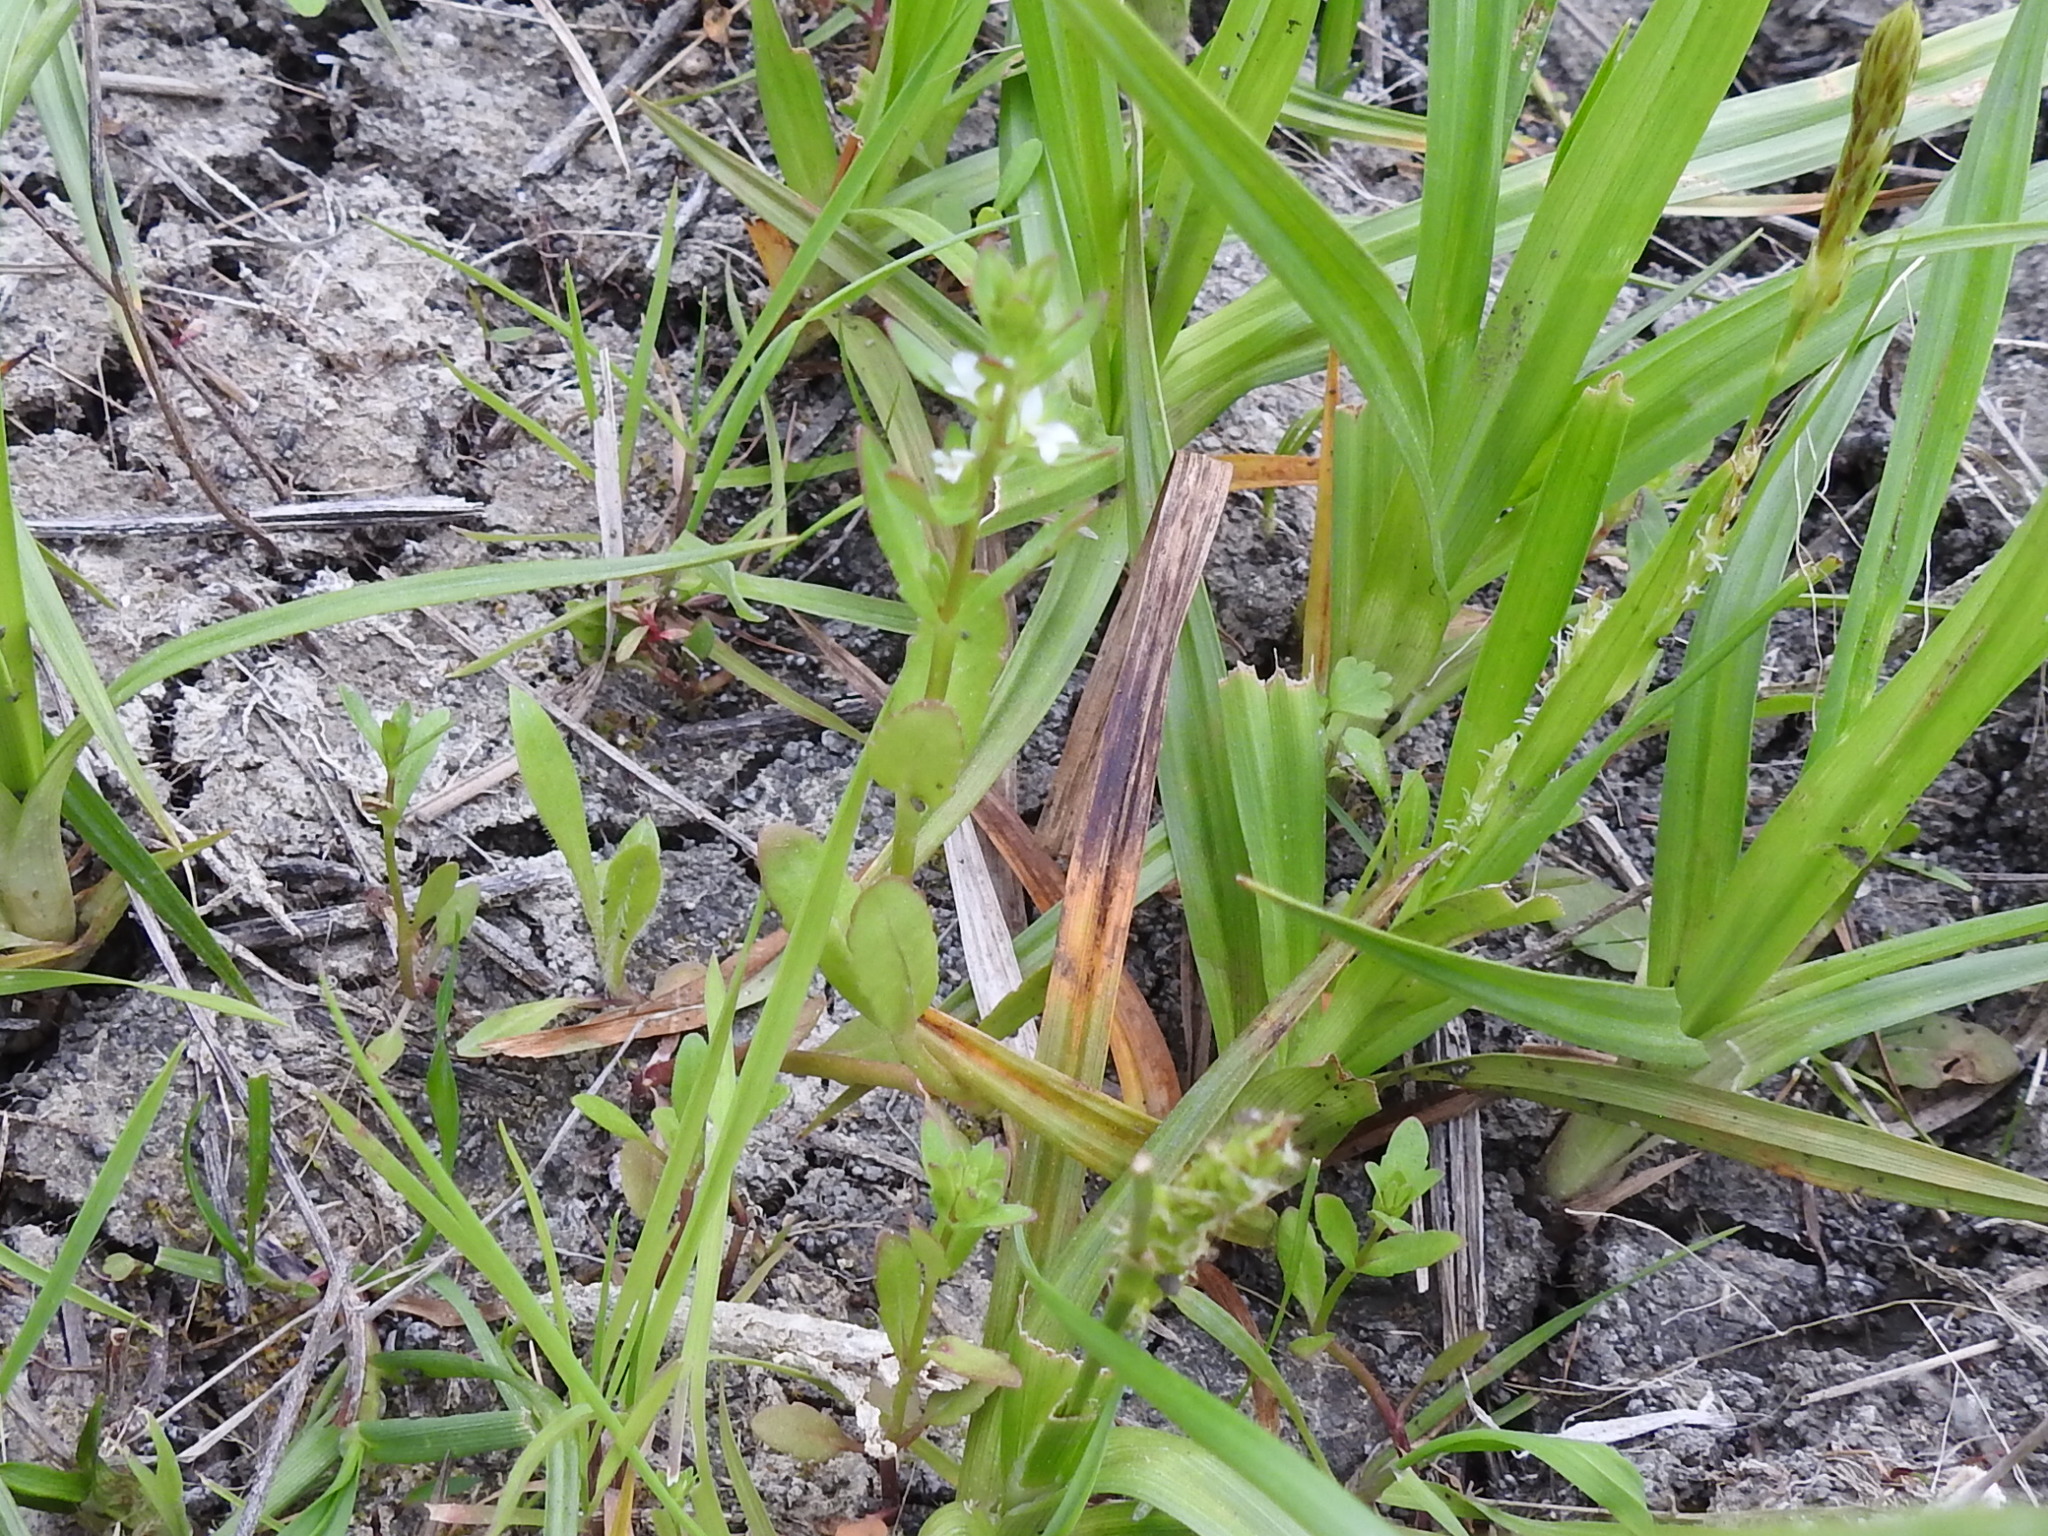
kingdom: Plantae
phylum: Tracheophyta
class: Magnoliopsida
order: Lamiales
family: Plantaginaceae
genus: Veronica
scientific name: Veronica peregrina
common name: Neckweed
